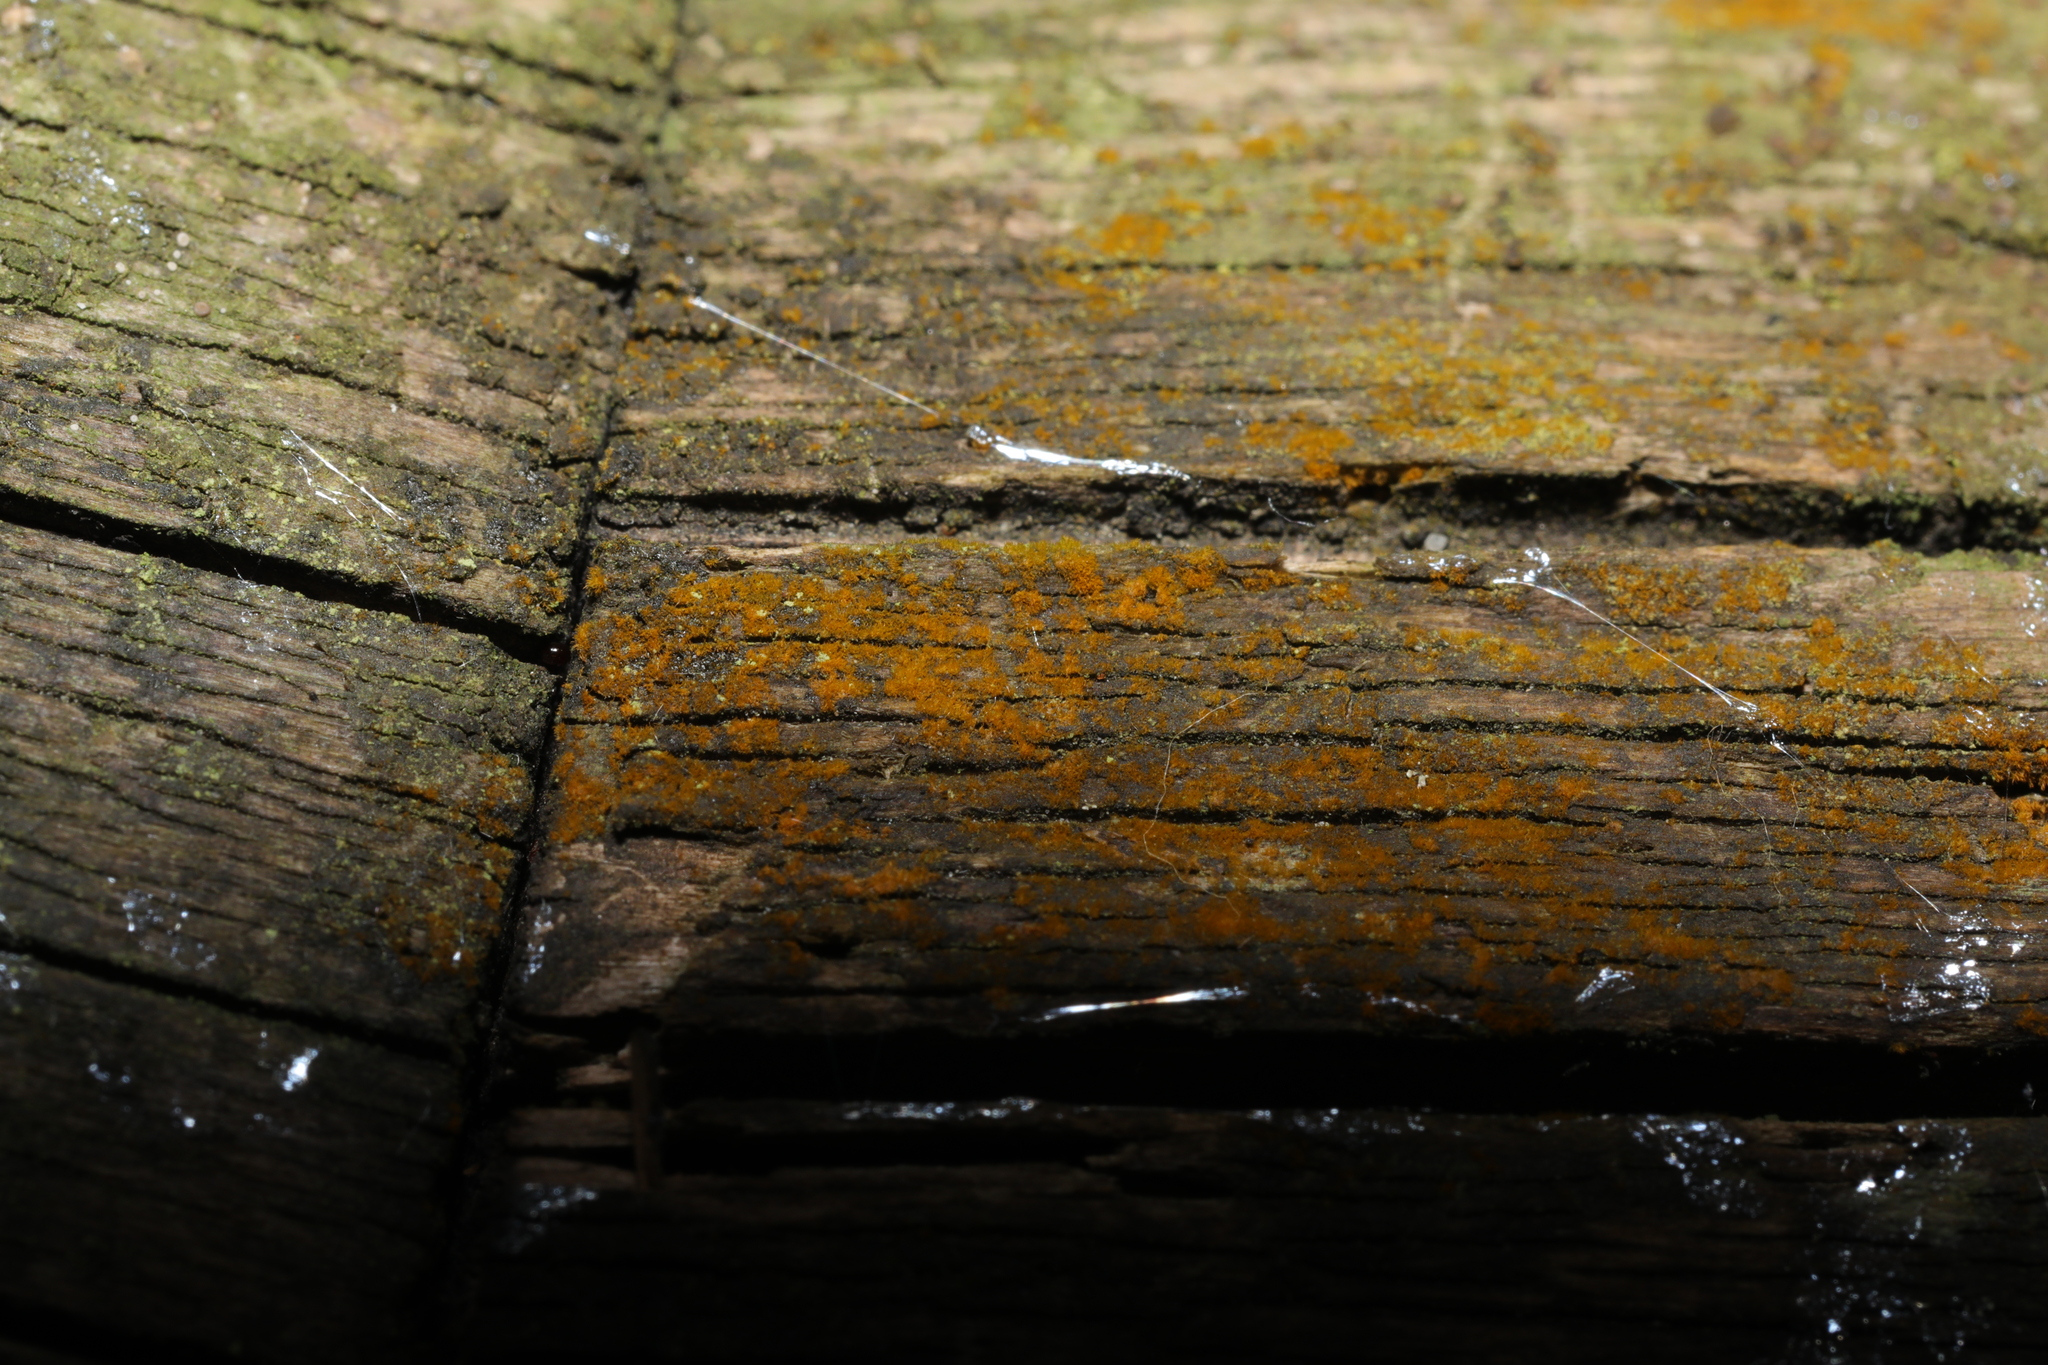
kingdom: Plantae
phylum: Chlorophyta
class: Ulvophyceae
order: Trentepohliales
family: Trentepohliaceae
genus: Trentepohlia
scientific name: Trentepohlia
